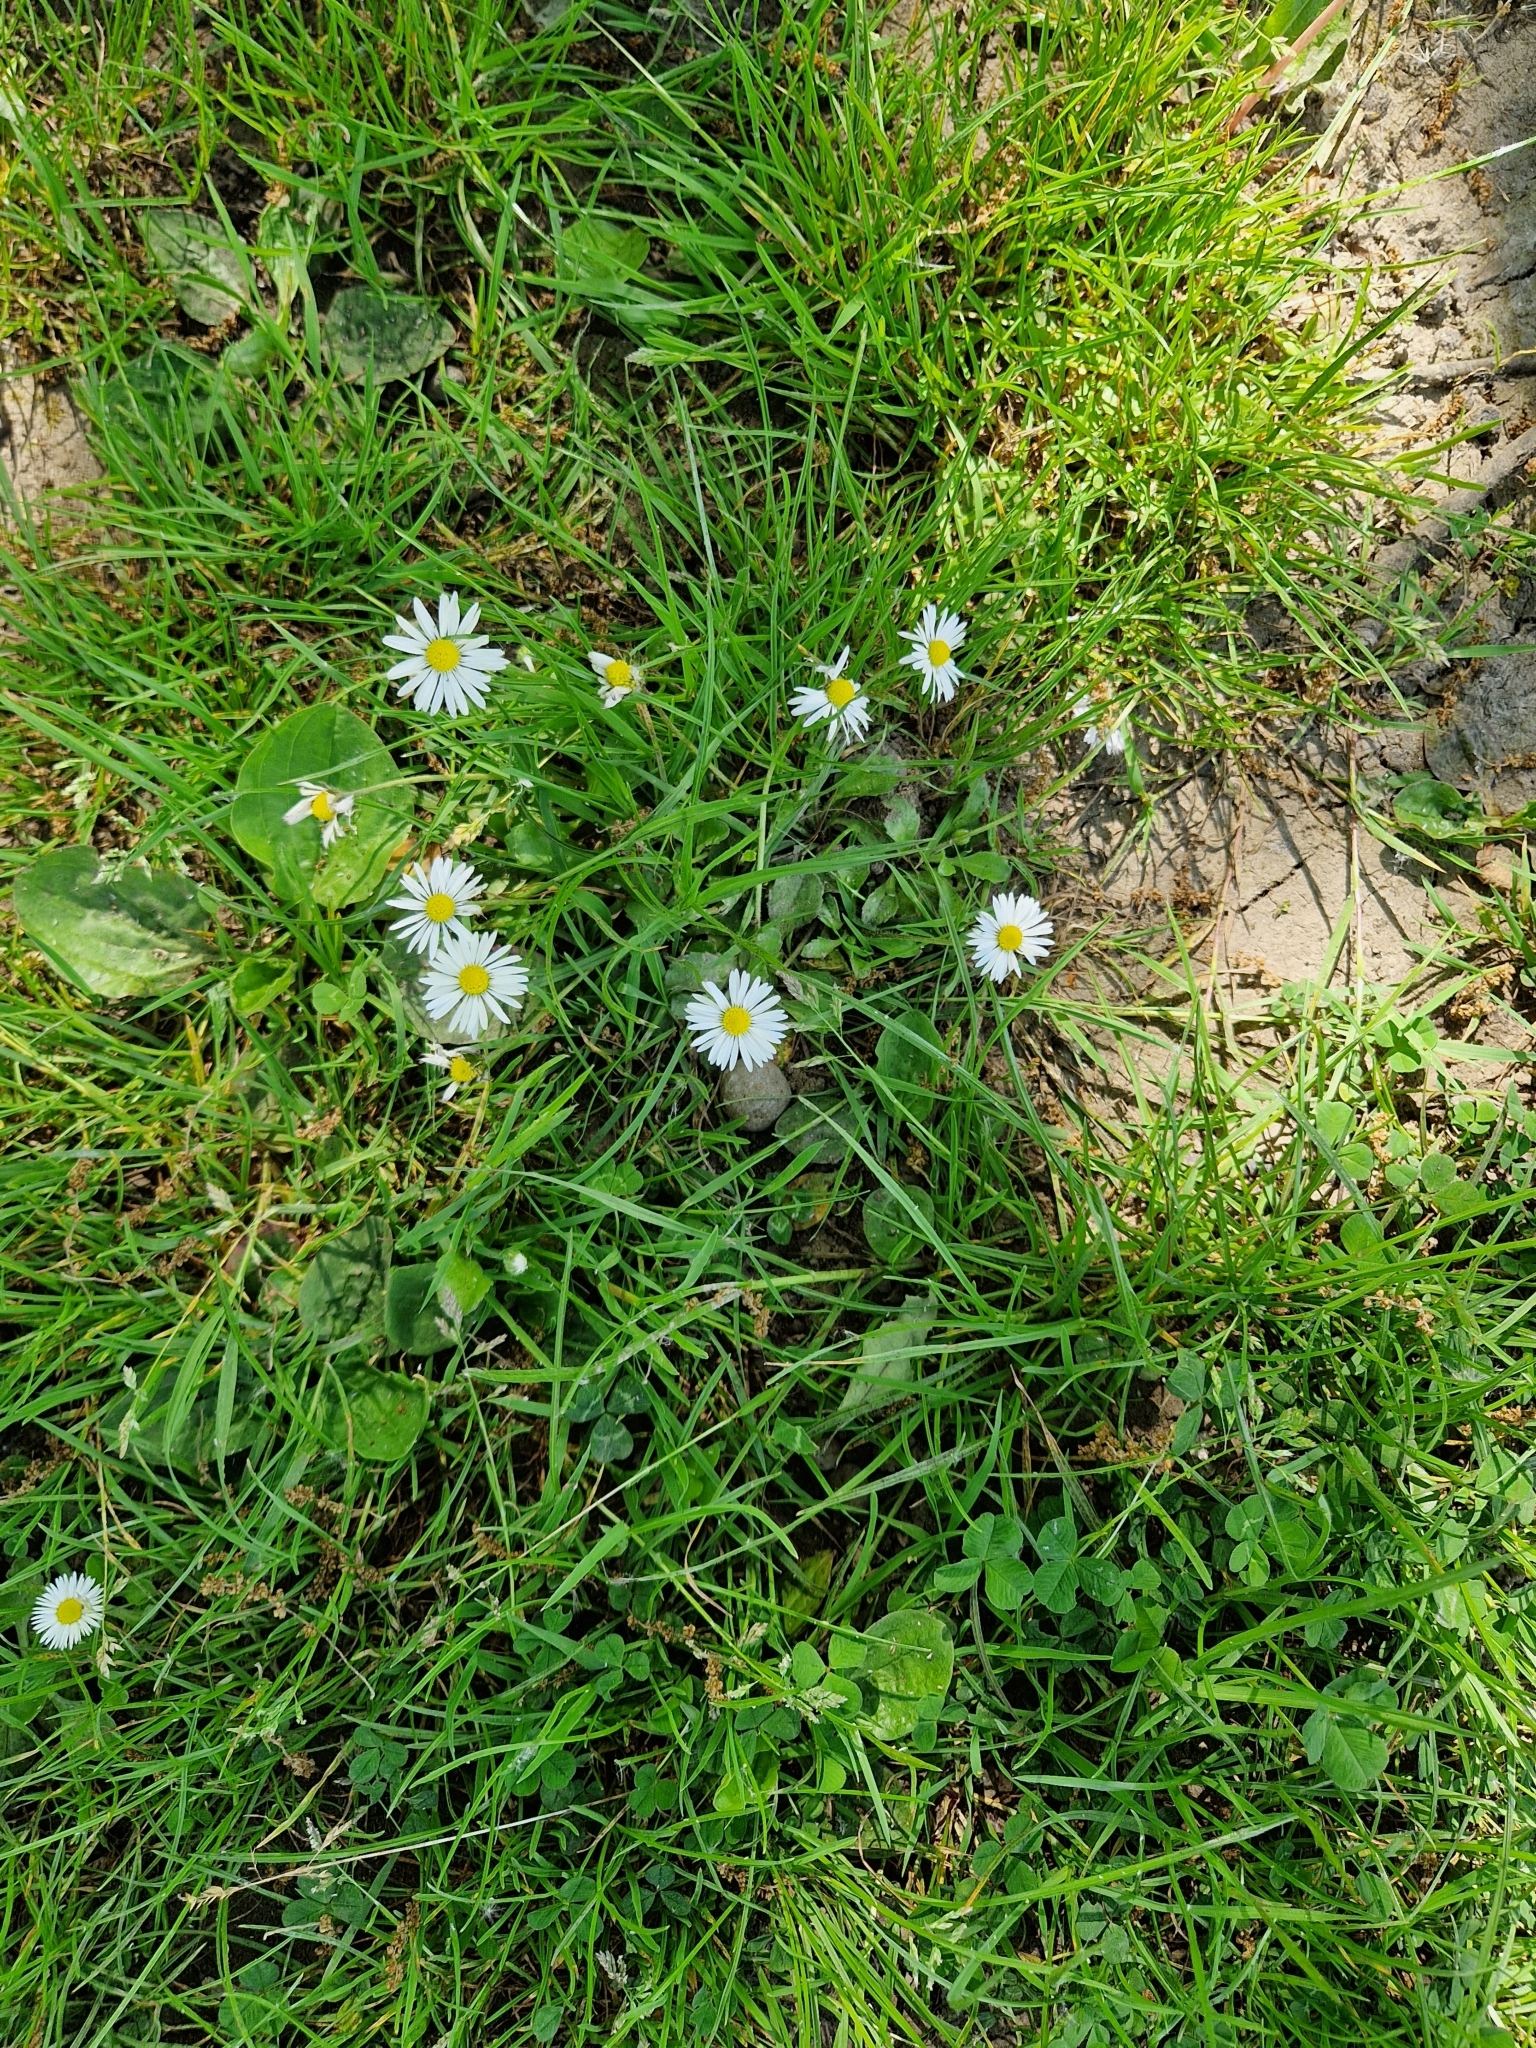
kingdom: Plantae
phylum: Tracheophyta
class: Magnoliopsida
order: Asterales
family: Asteraceae
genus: Bellis
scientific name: Bellis perennis
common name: Lawndaisy
